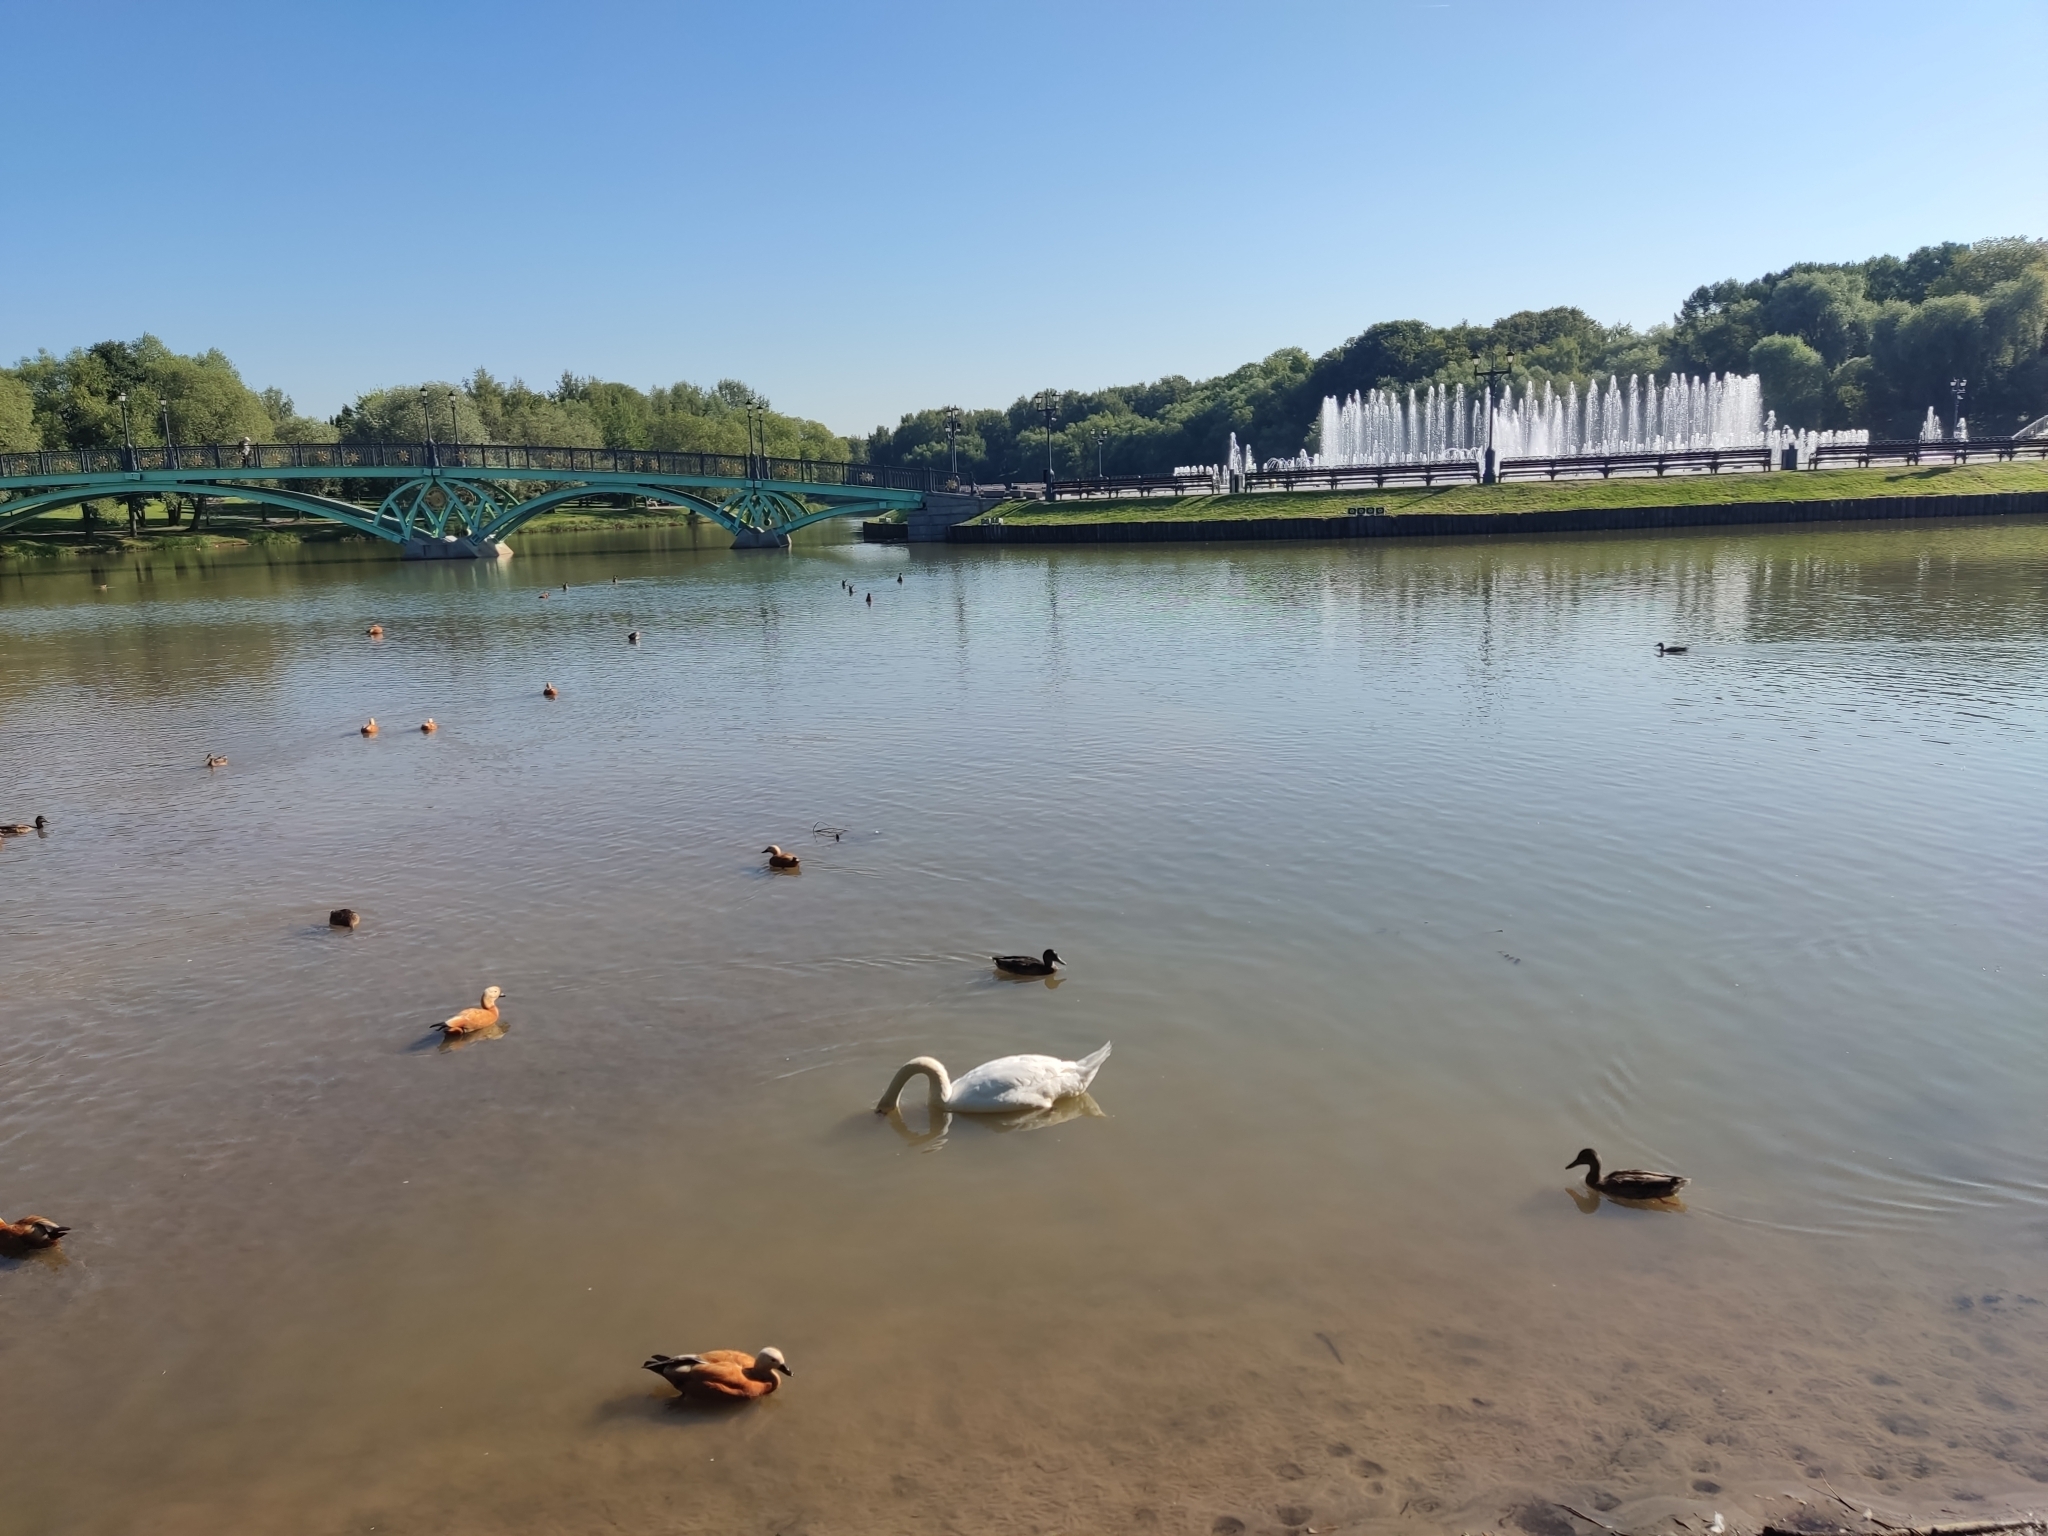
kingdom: Animalia
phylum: Chordata
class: Aves
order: Anseriformes
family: Anatidae
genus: Cygnus
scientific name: Cygnus olor
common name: Mute swan
